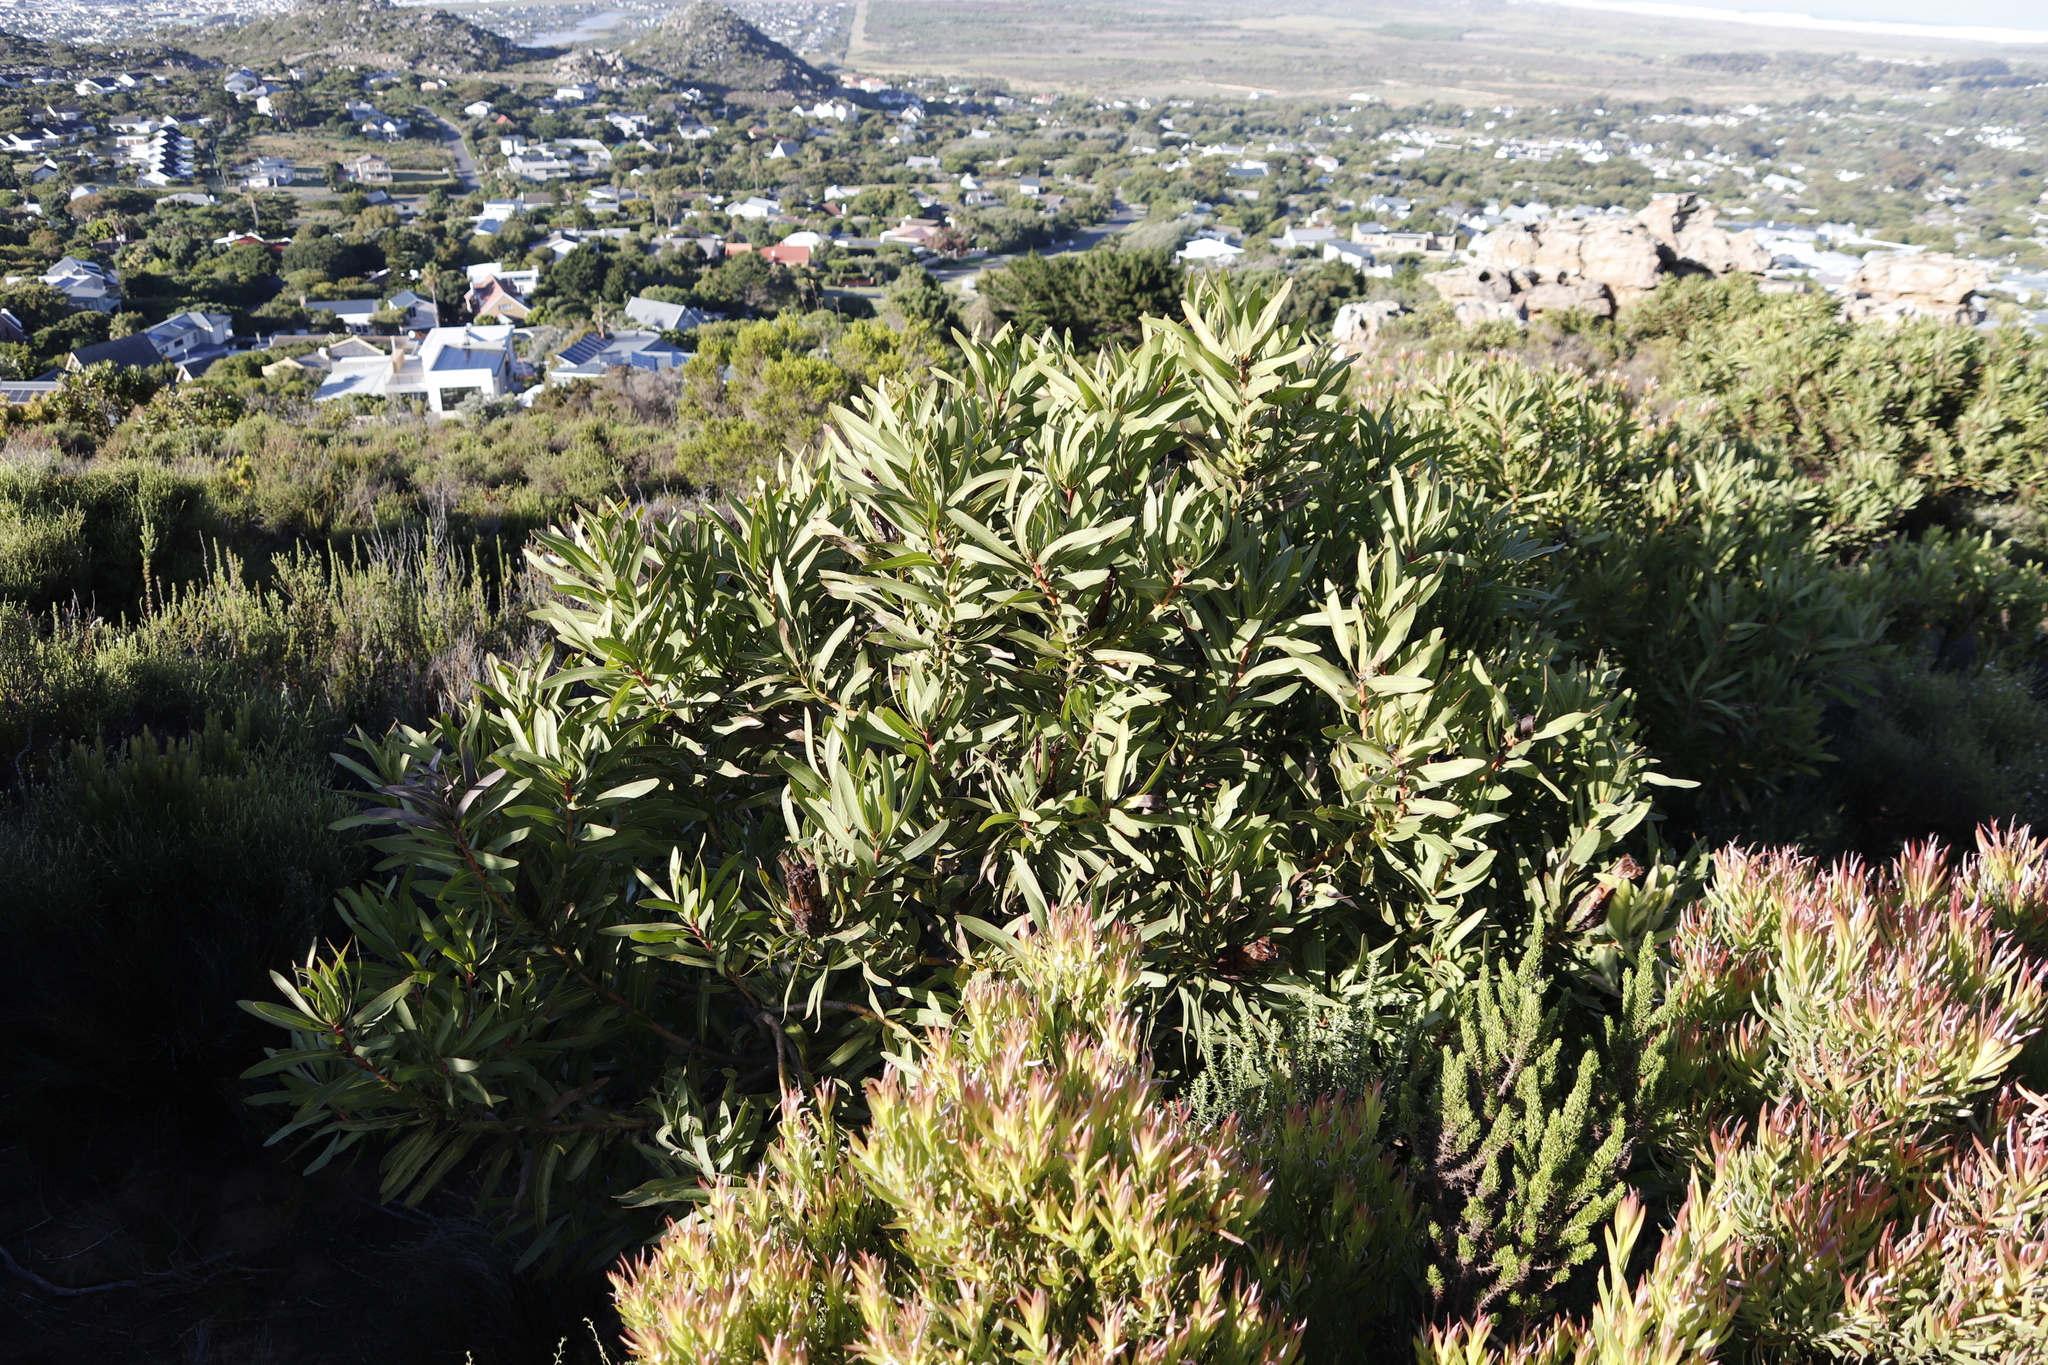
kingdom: Plantae
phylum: Tracheophyta
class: Magnoliopsida
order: Proteales
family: Proteaceae
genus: Protea
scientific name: Protea lepidocarpodendron
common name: Black-bearded protea
